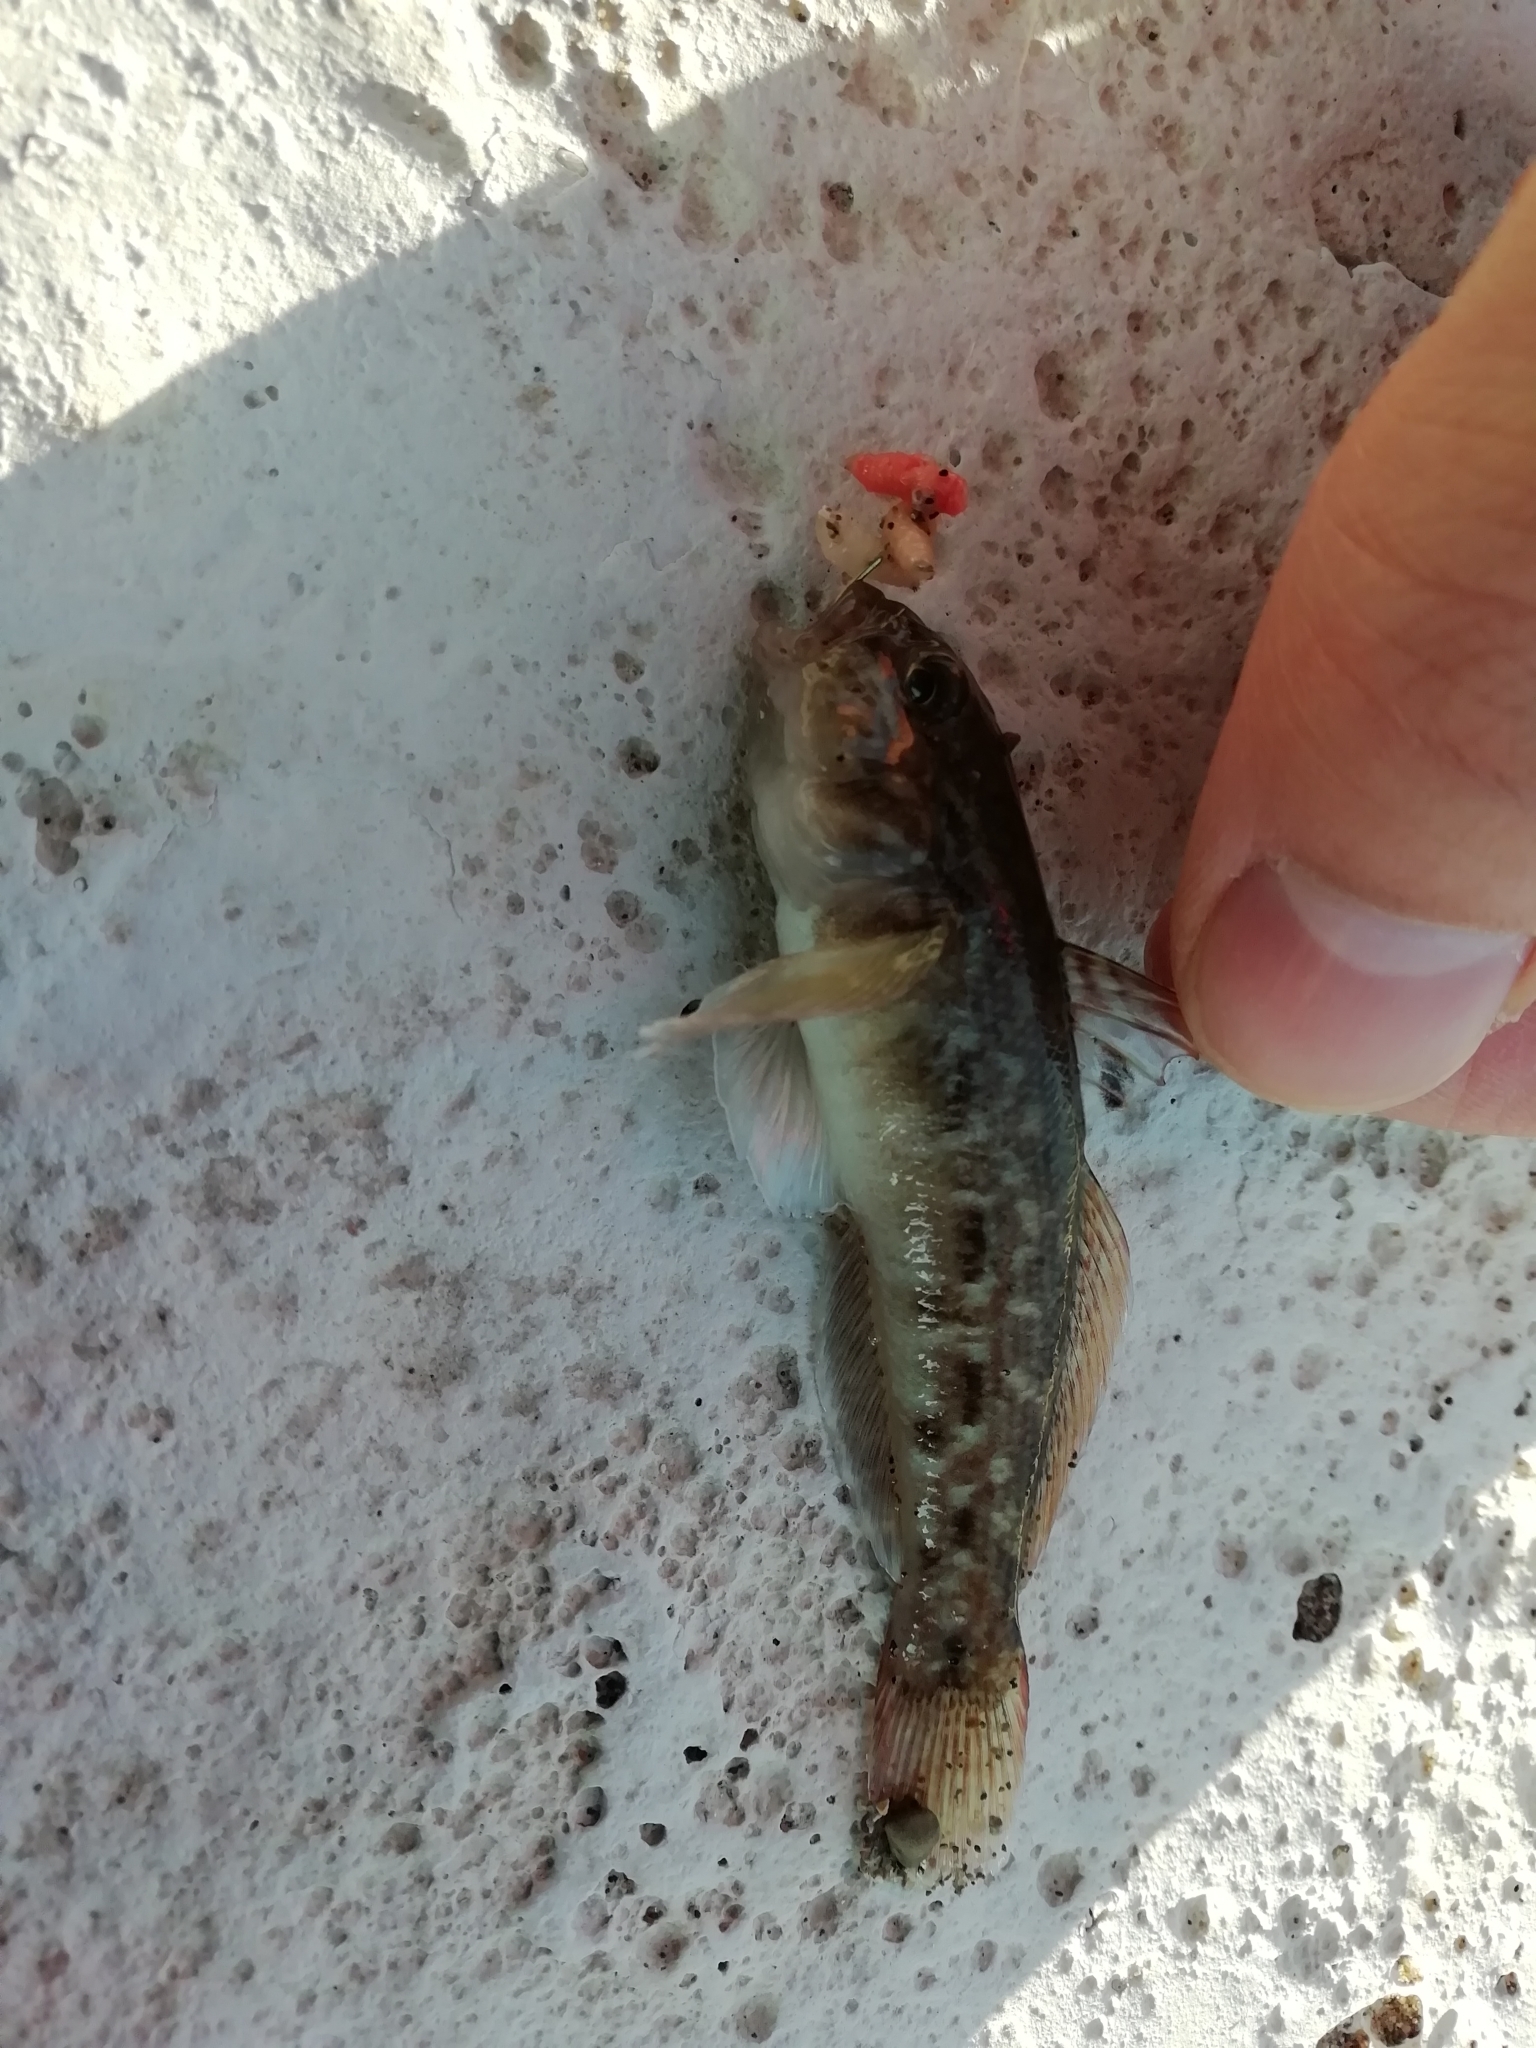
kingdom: Animalia
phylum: Chordata
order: Perciformes
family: Gobiidae
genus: Neogobius
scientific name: Neogobius melanostomus
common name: Round goby
